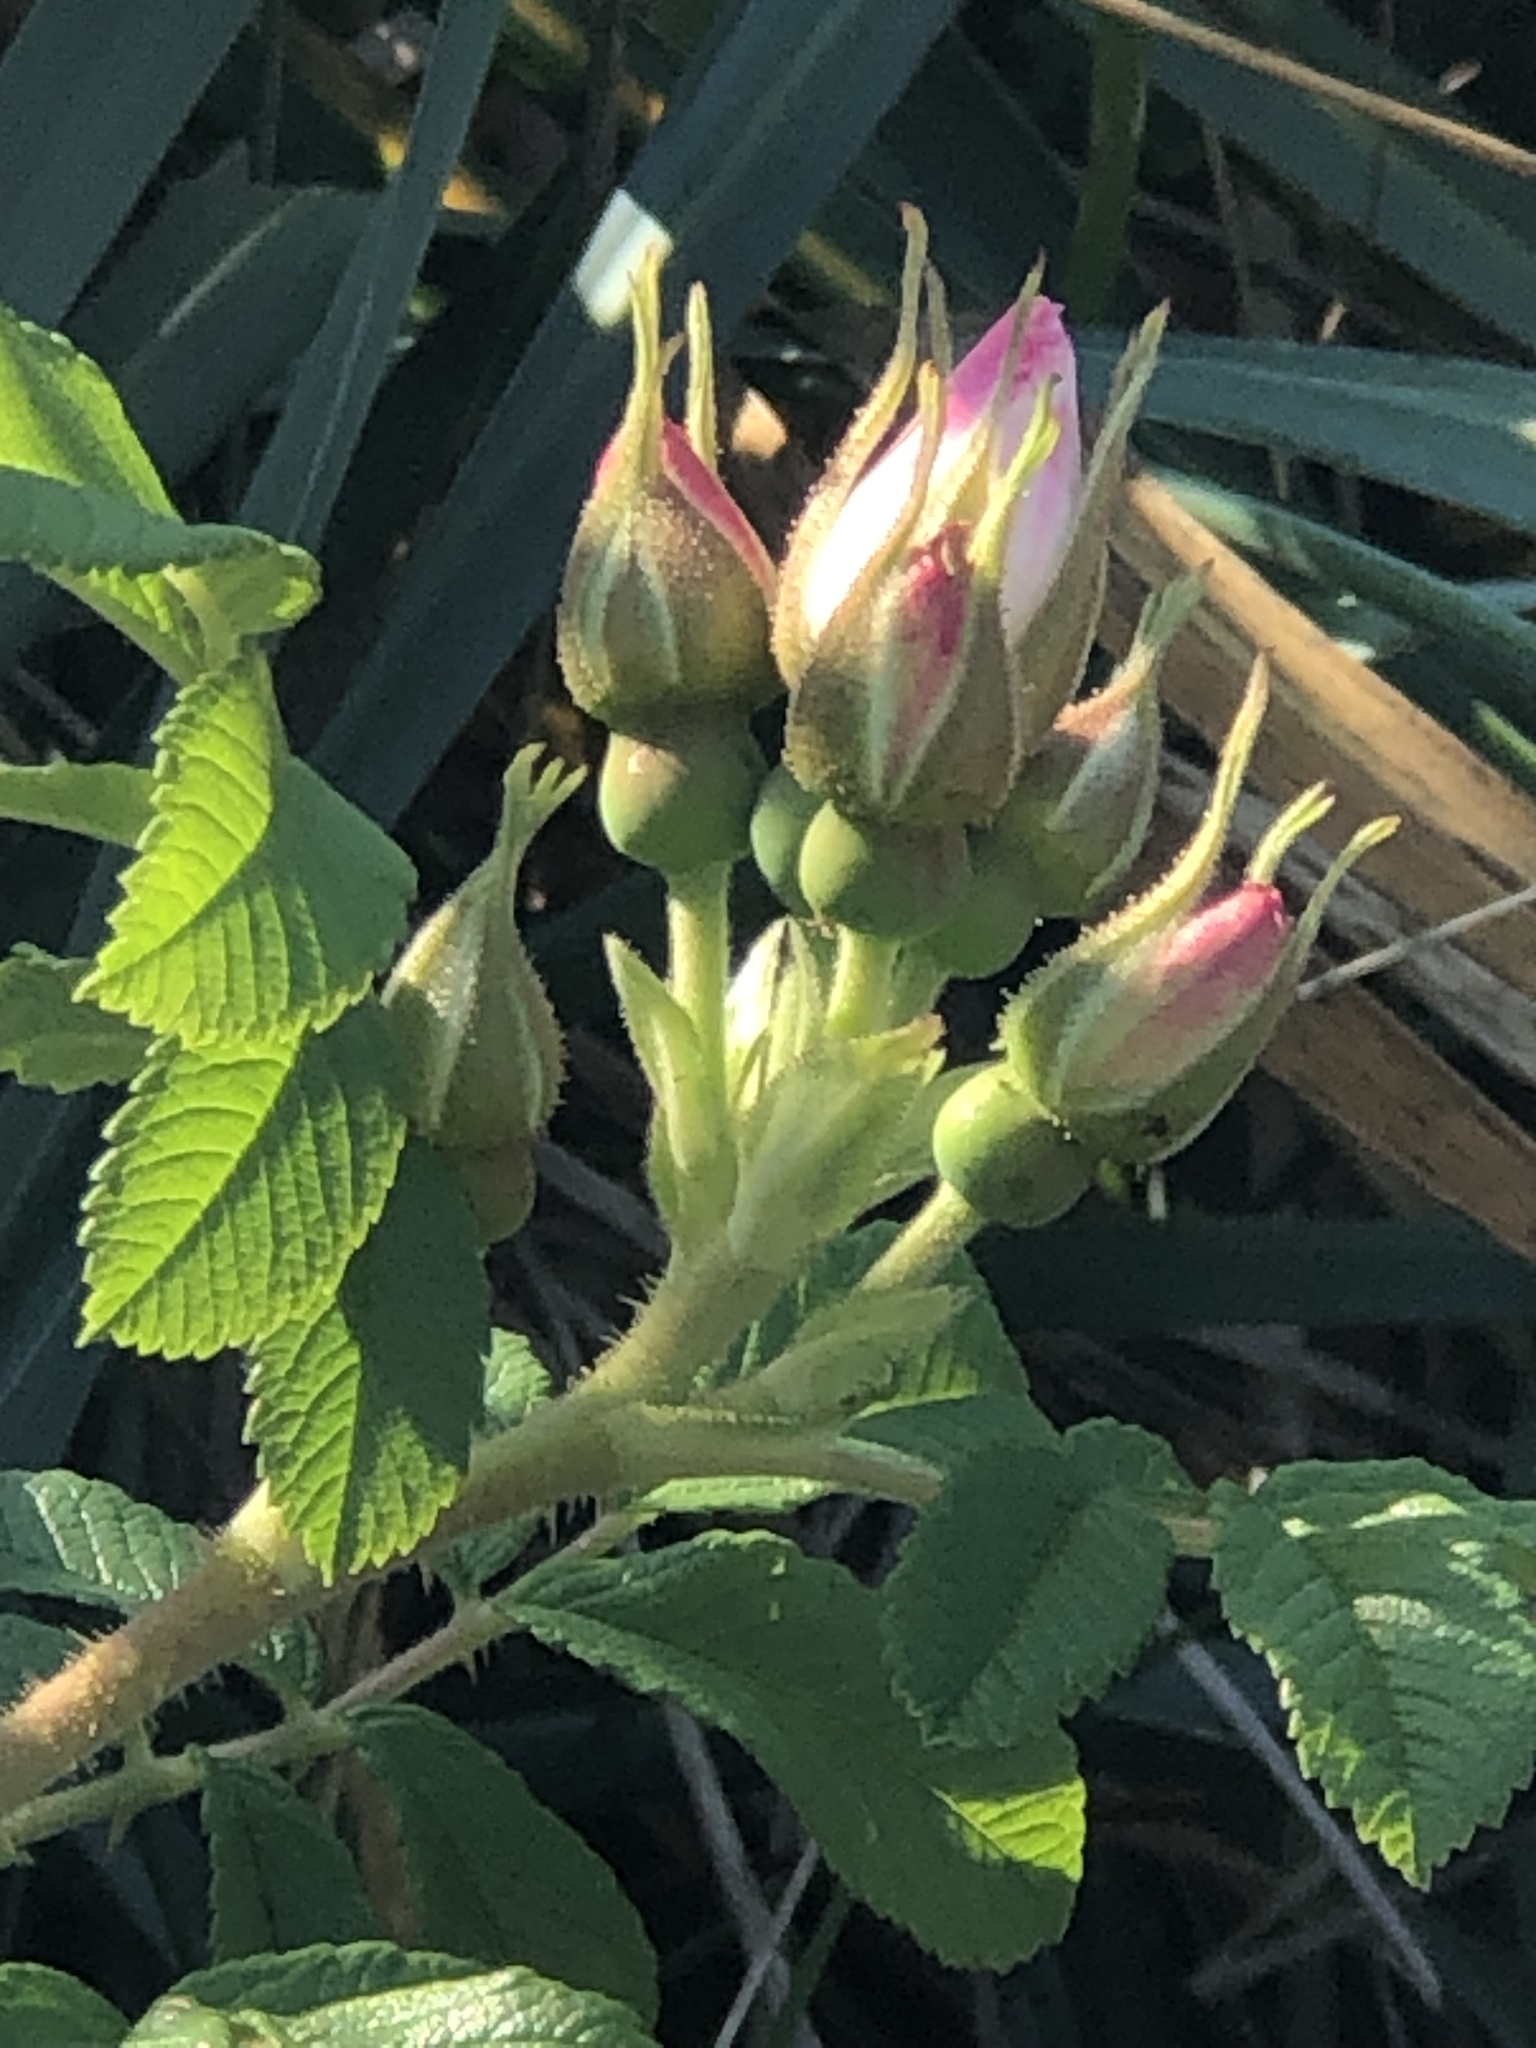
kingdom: Plantae
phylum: Tracheophyta
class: Magnoliopsida
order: Rosales
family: Rosaceae
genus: Rosa
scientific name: Rosa rugosa
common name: Japanese rose
